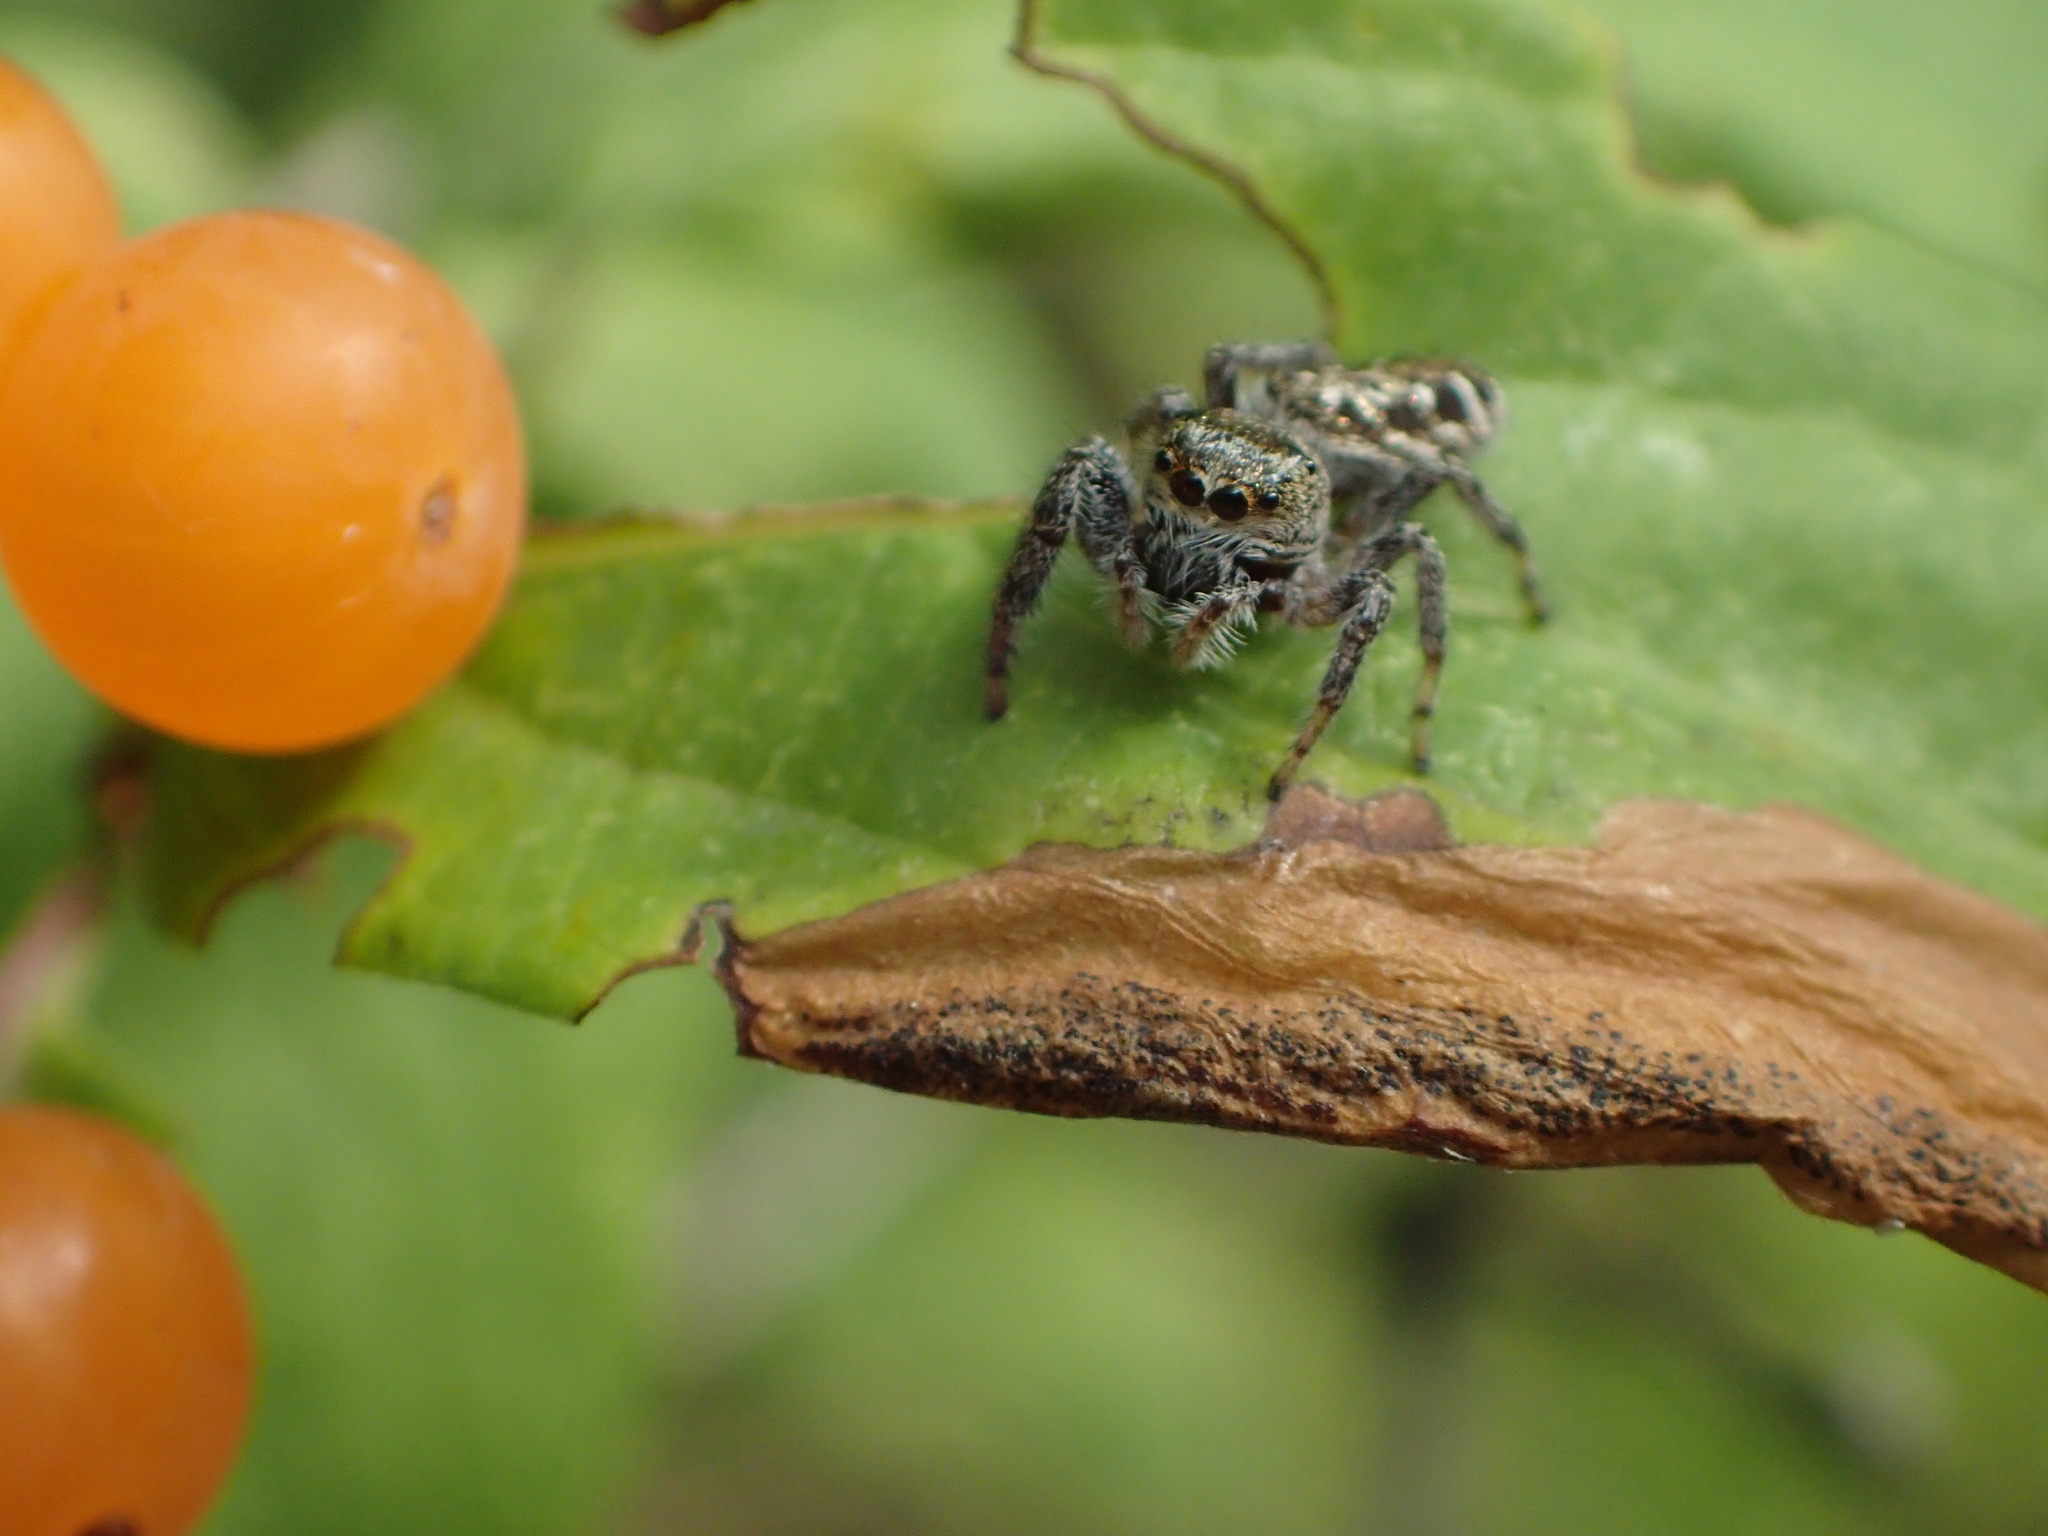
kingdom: Animalia
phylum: Arthropoda
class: Arachnida
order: Araneae
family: Salticidae
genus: Eris
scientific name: Eris militaris
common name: Bronze jumper
